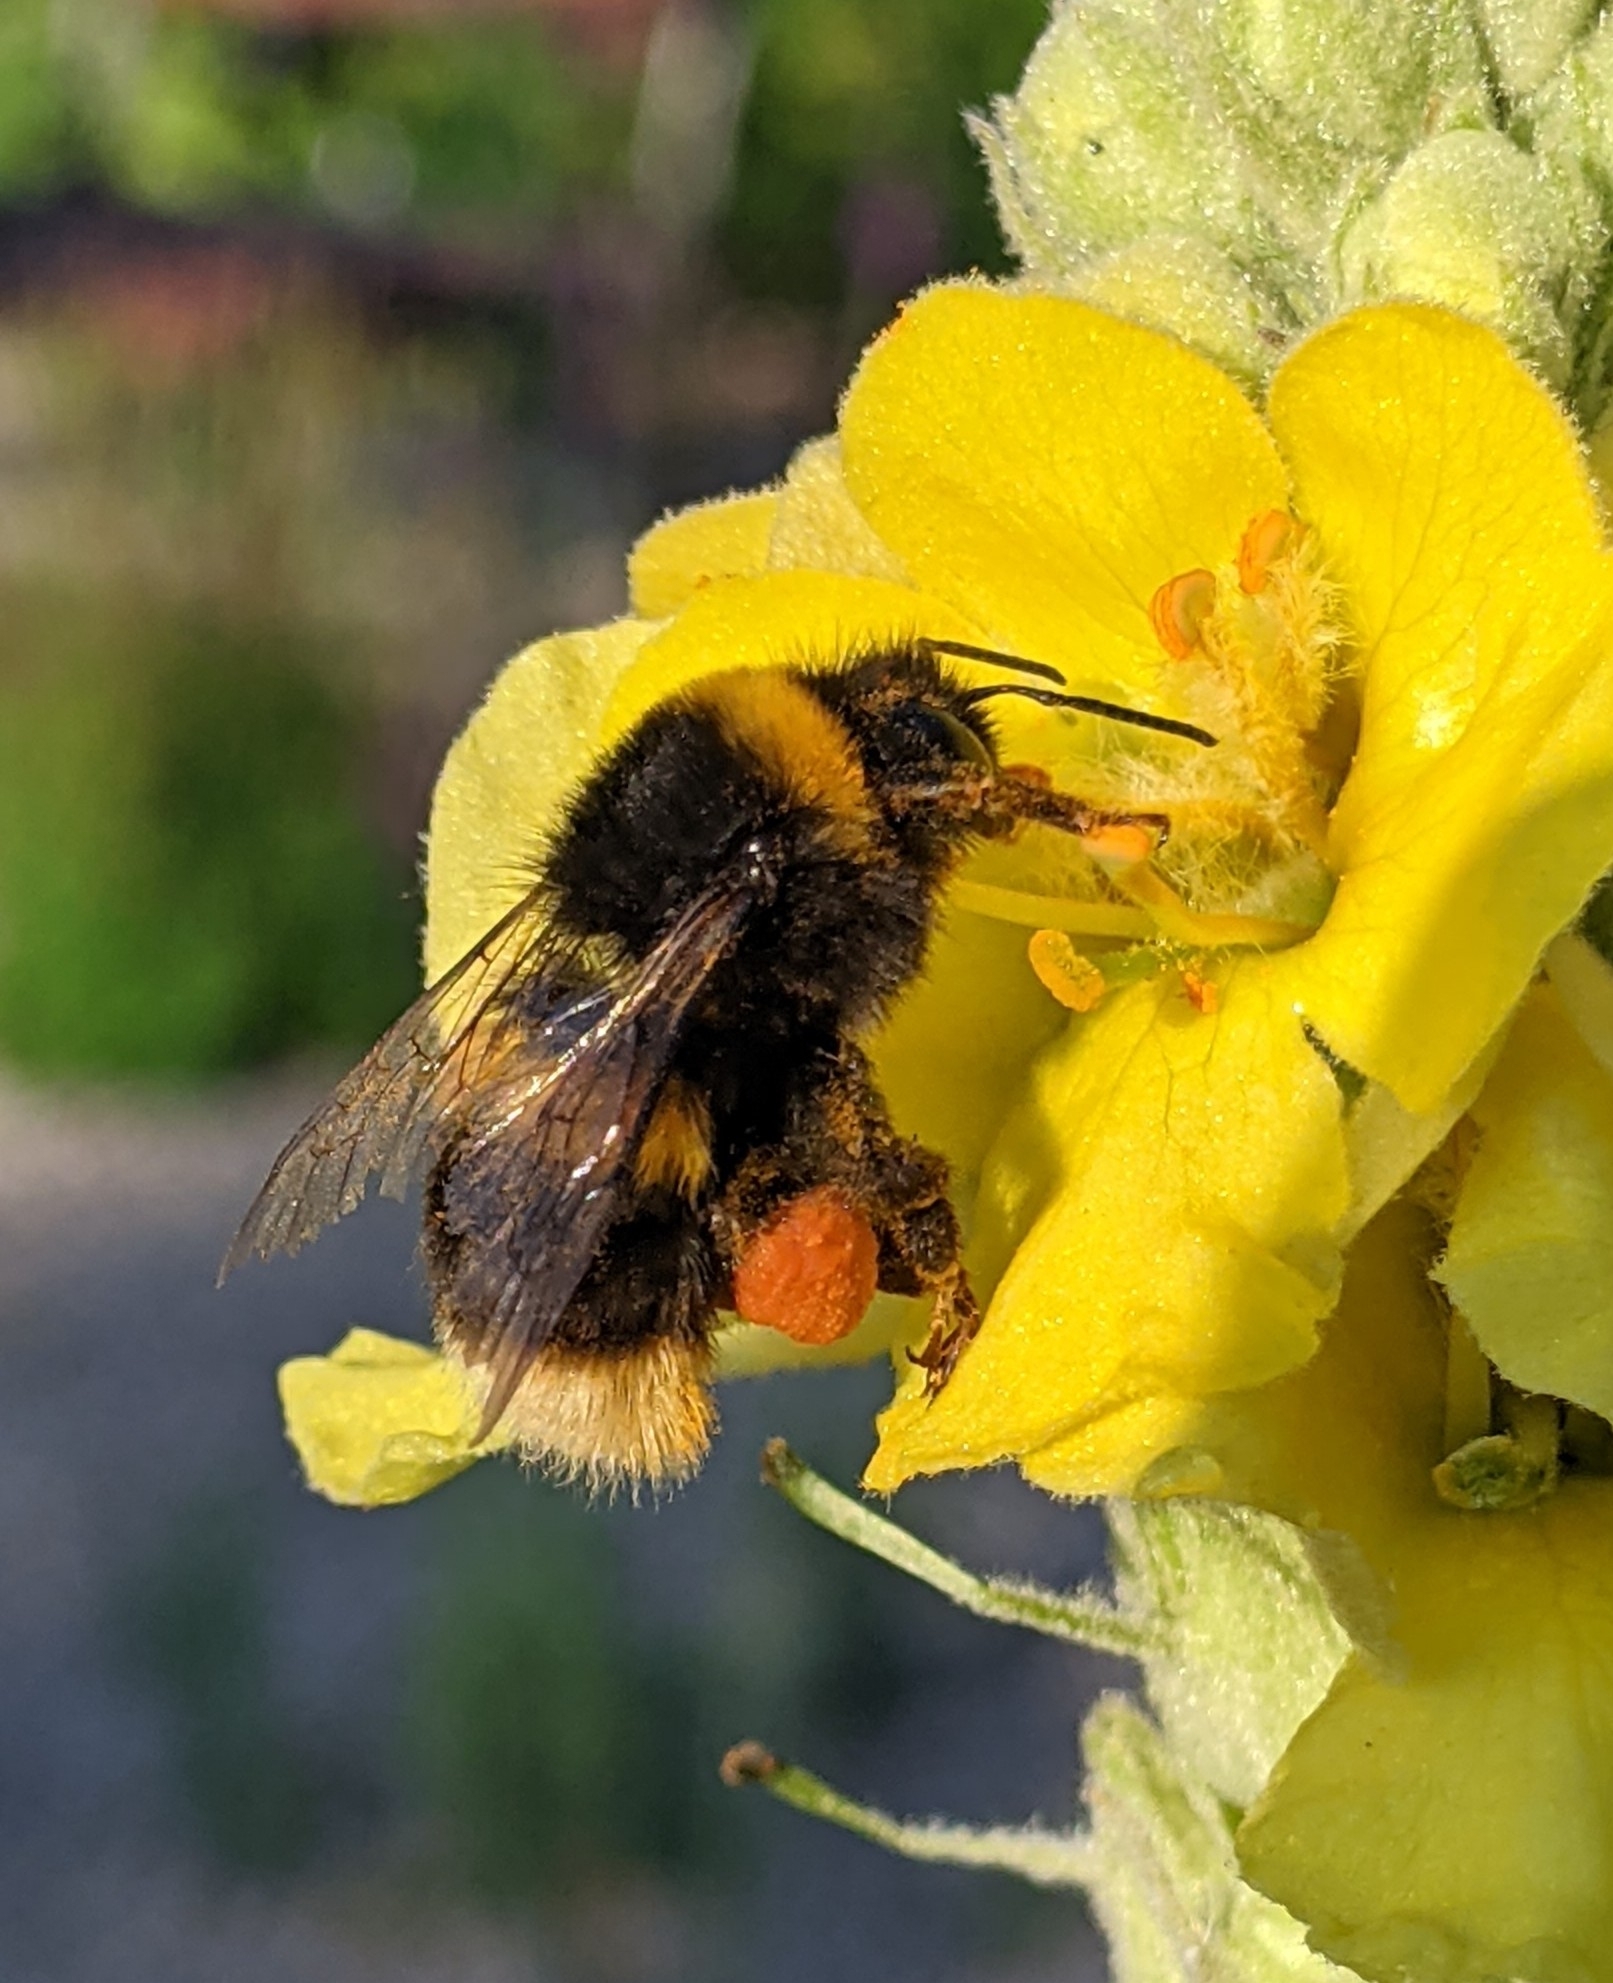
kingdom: Animalia
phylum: Arthropoda
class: Insecta
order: Hymenoptera
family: Apidae
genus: Bombus
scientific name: Bombus terrestris
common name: Buff-tailed bumblebee
